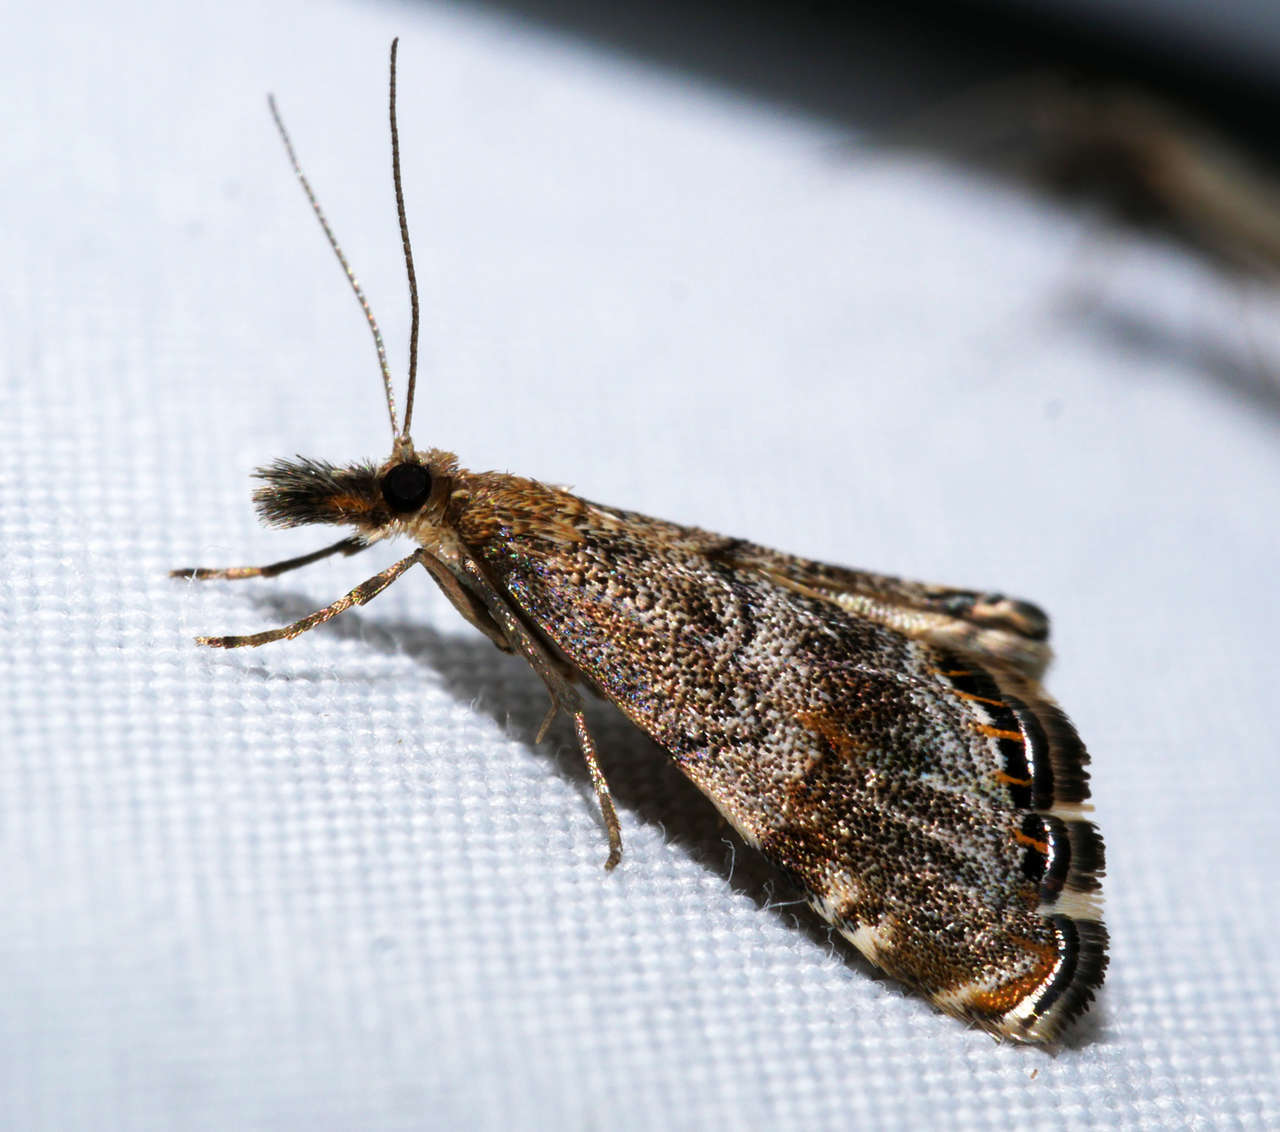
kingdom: Animalia
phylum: Arthropoda
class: Insecta
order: Lepidoptera
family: Crambidae
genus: Glaucocharis
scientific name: Glaucocharis dilatella
